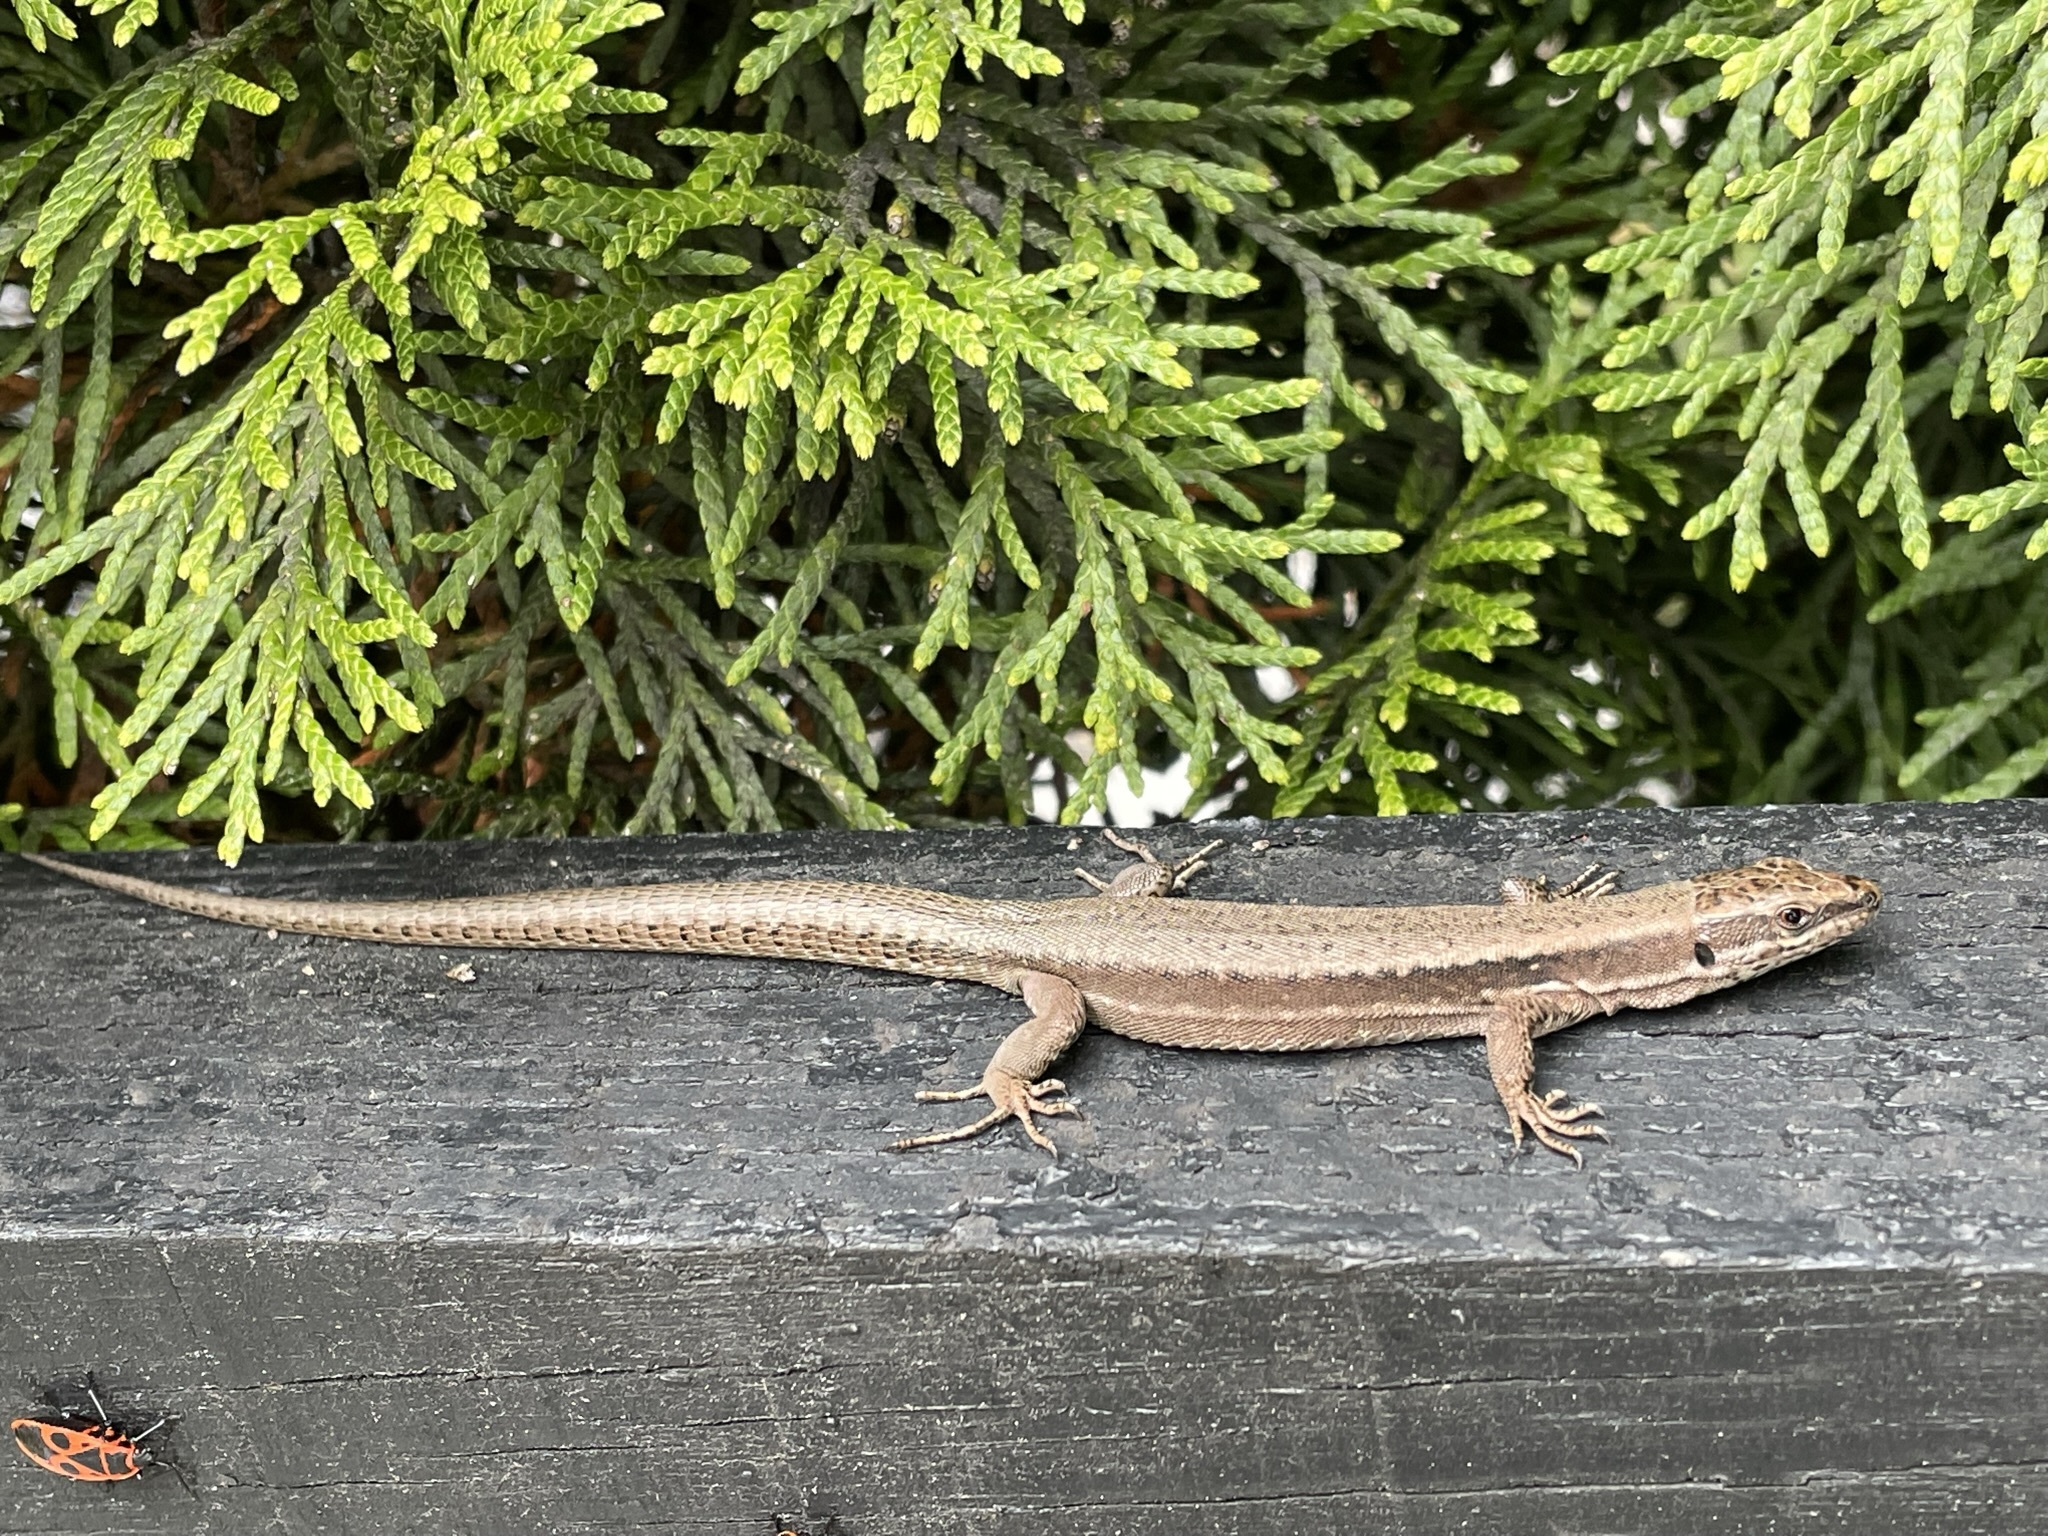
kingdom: Animalia
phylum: Chordata
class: Squamata
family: Lacertidae
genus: Podarcis
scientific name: Podarcis muralis
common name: Common wall lizard
